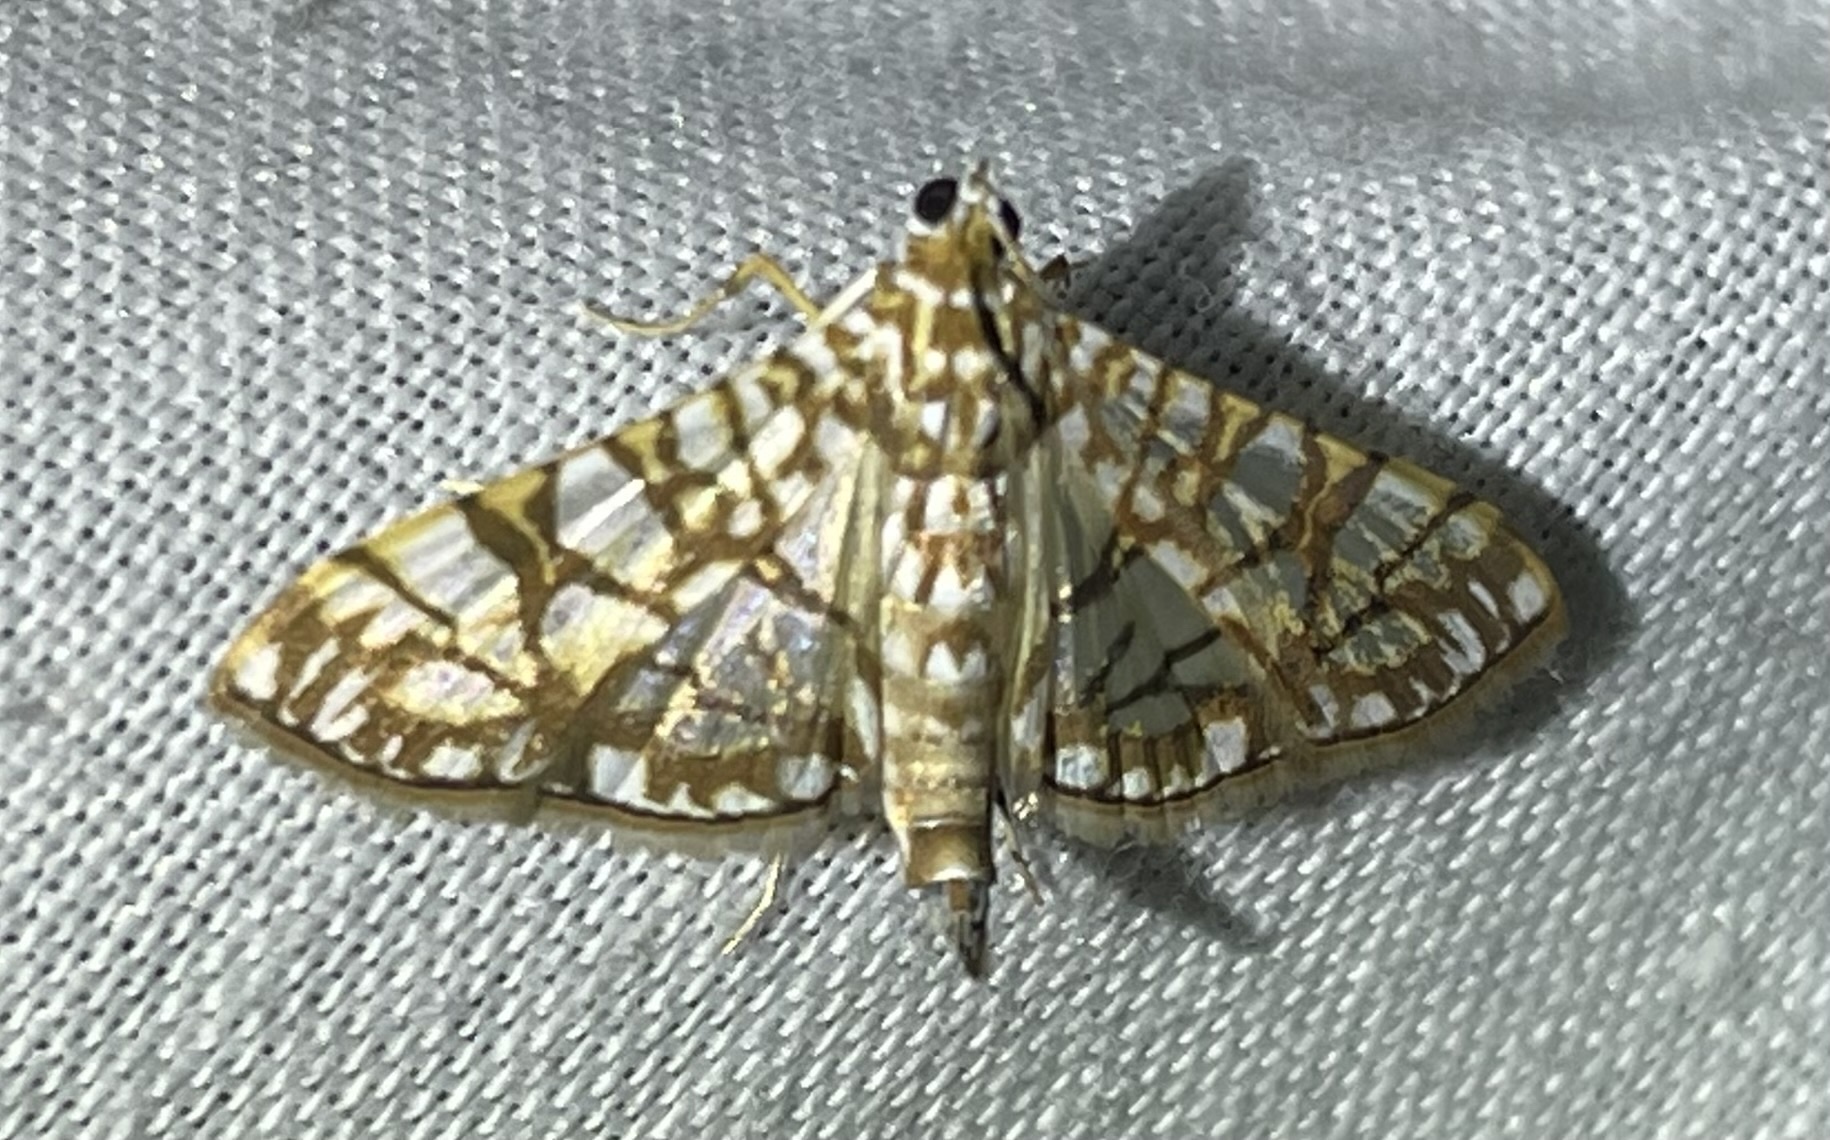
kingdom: Animalia
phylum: Arthropoda
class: Insecta
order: Lepidoptera
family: Crambidae
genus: Synclera
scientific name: Synclera traducalis
